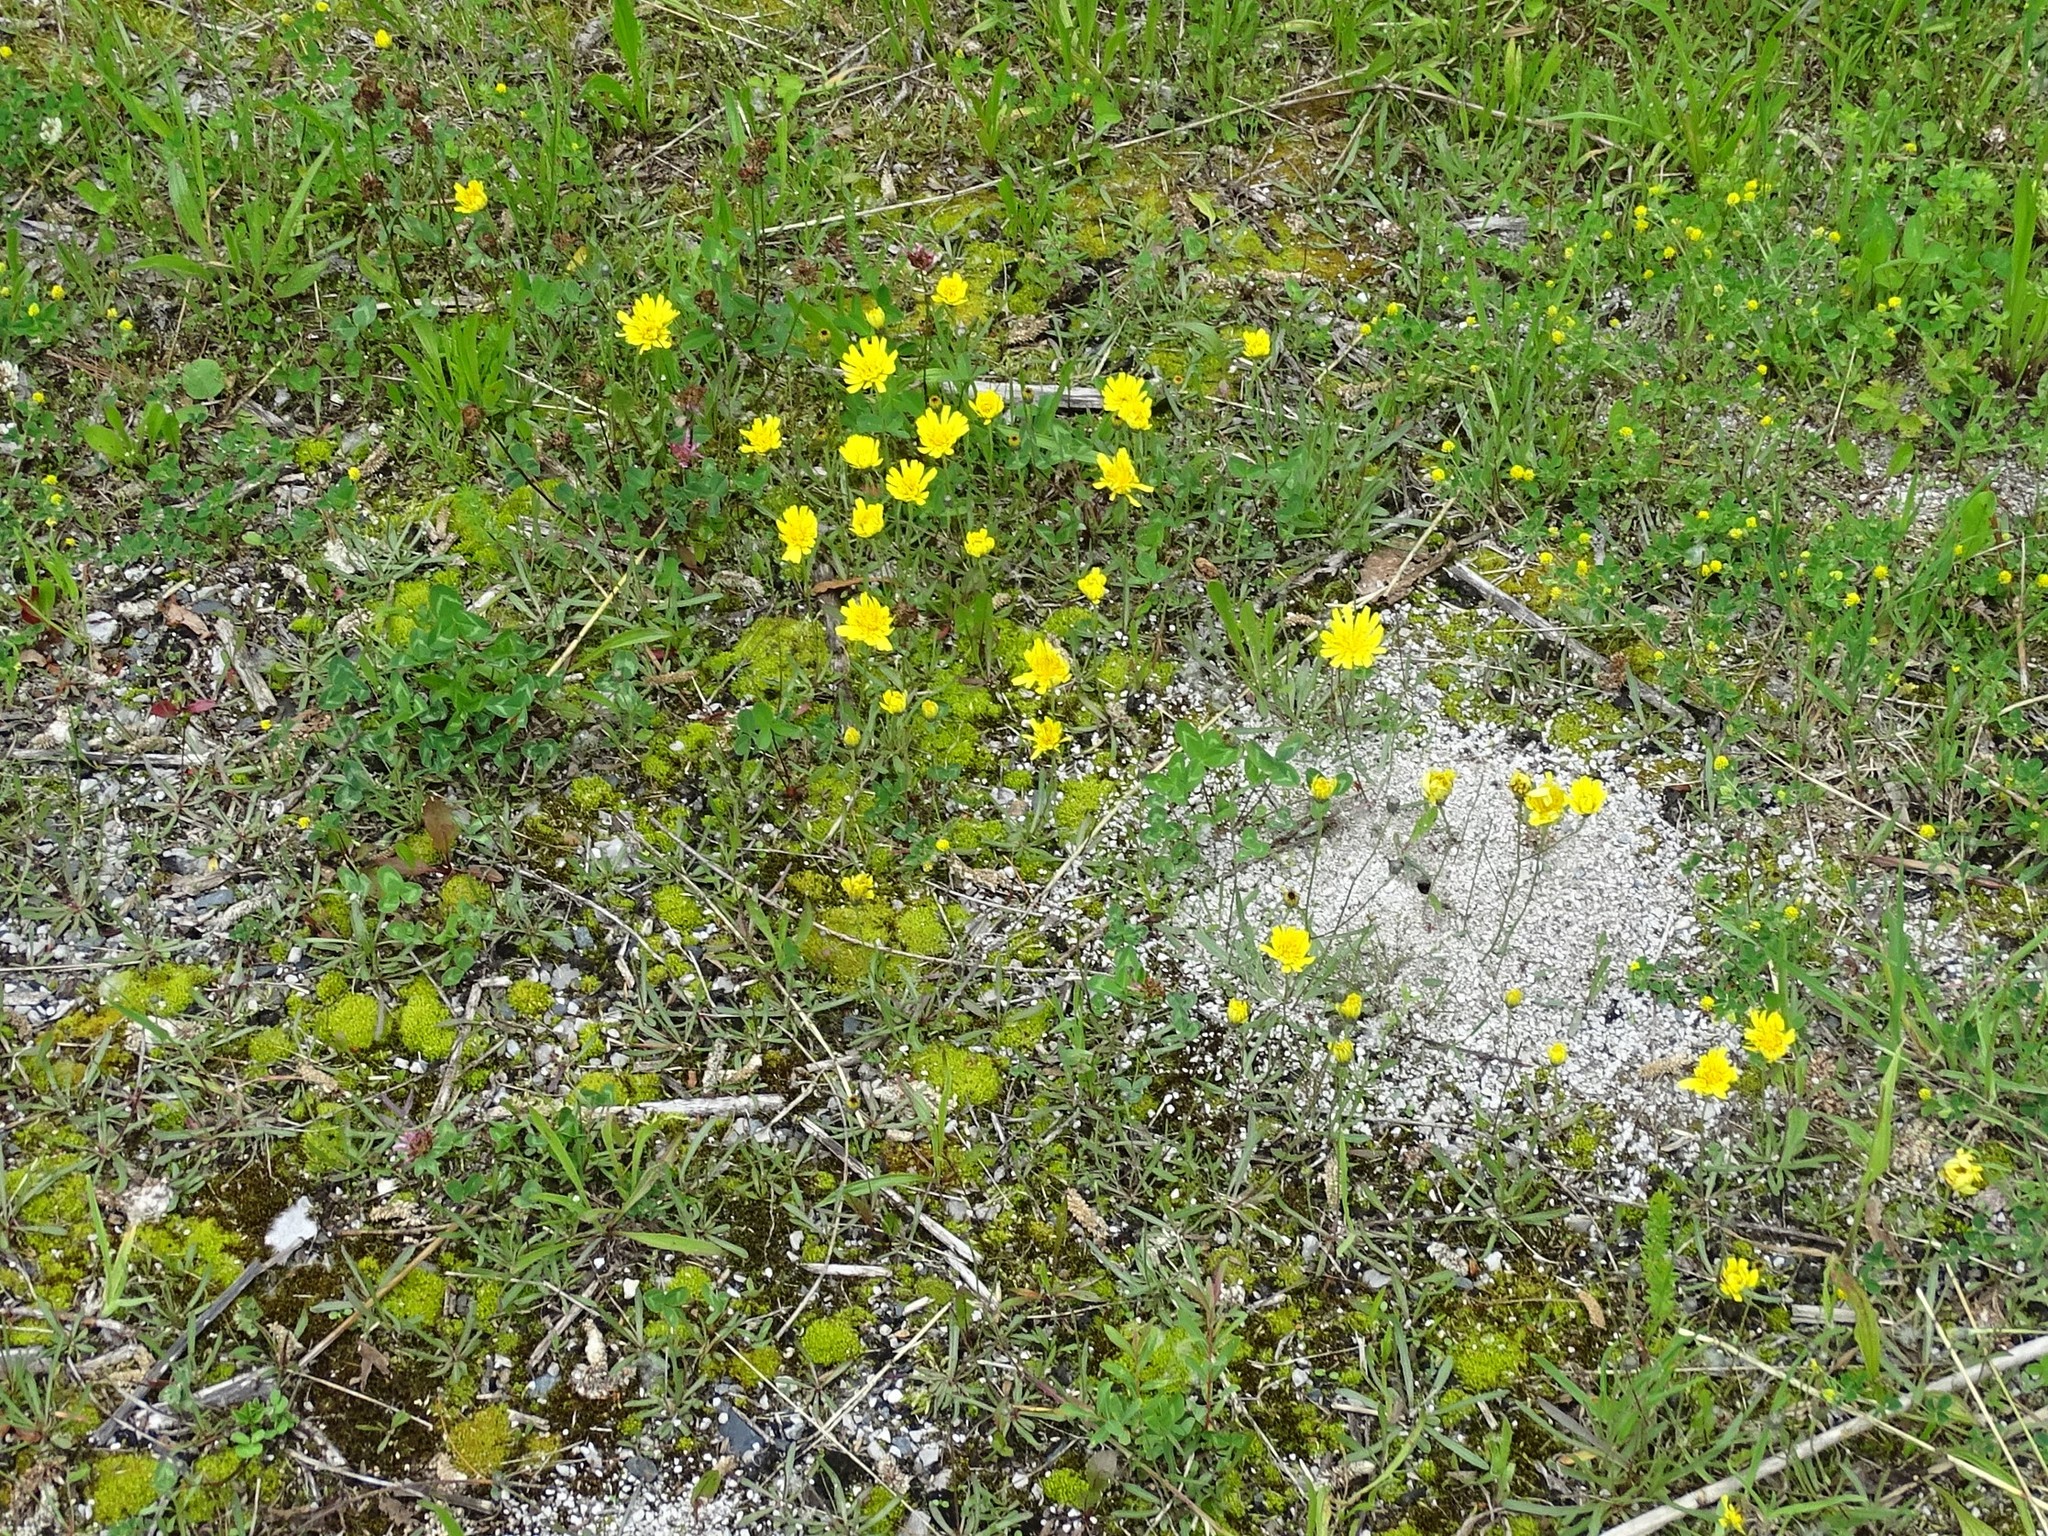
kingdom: Plantae
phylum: Tracheophyta
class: Magnoliopsida
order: Asterales
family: Asteraceae
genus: Tolpis
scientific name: Tolpis staticifolia
